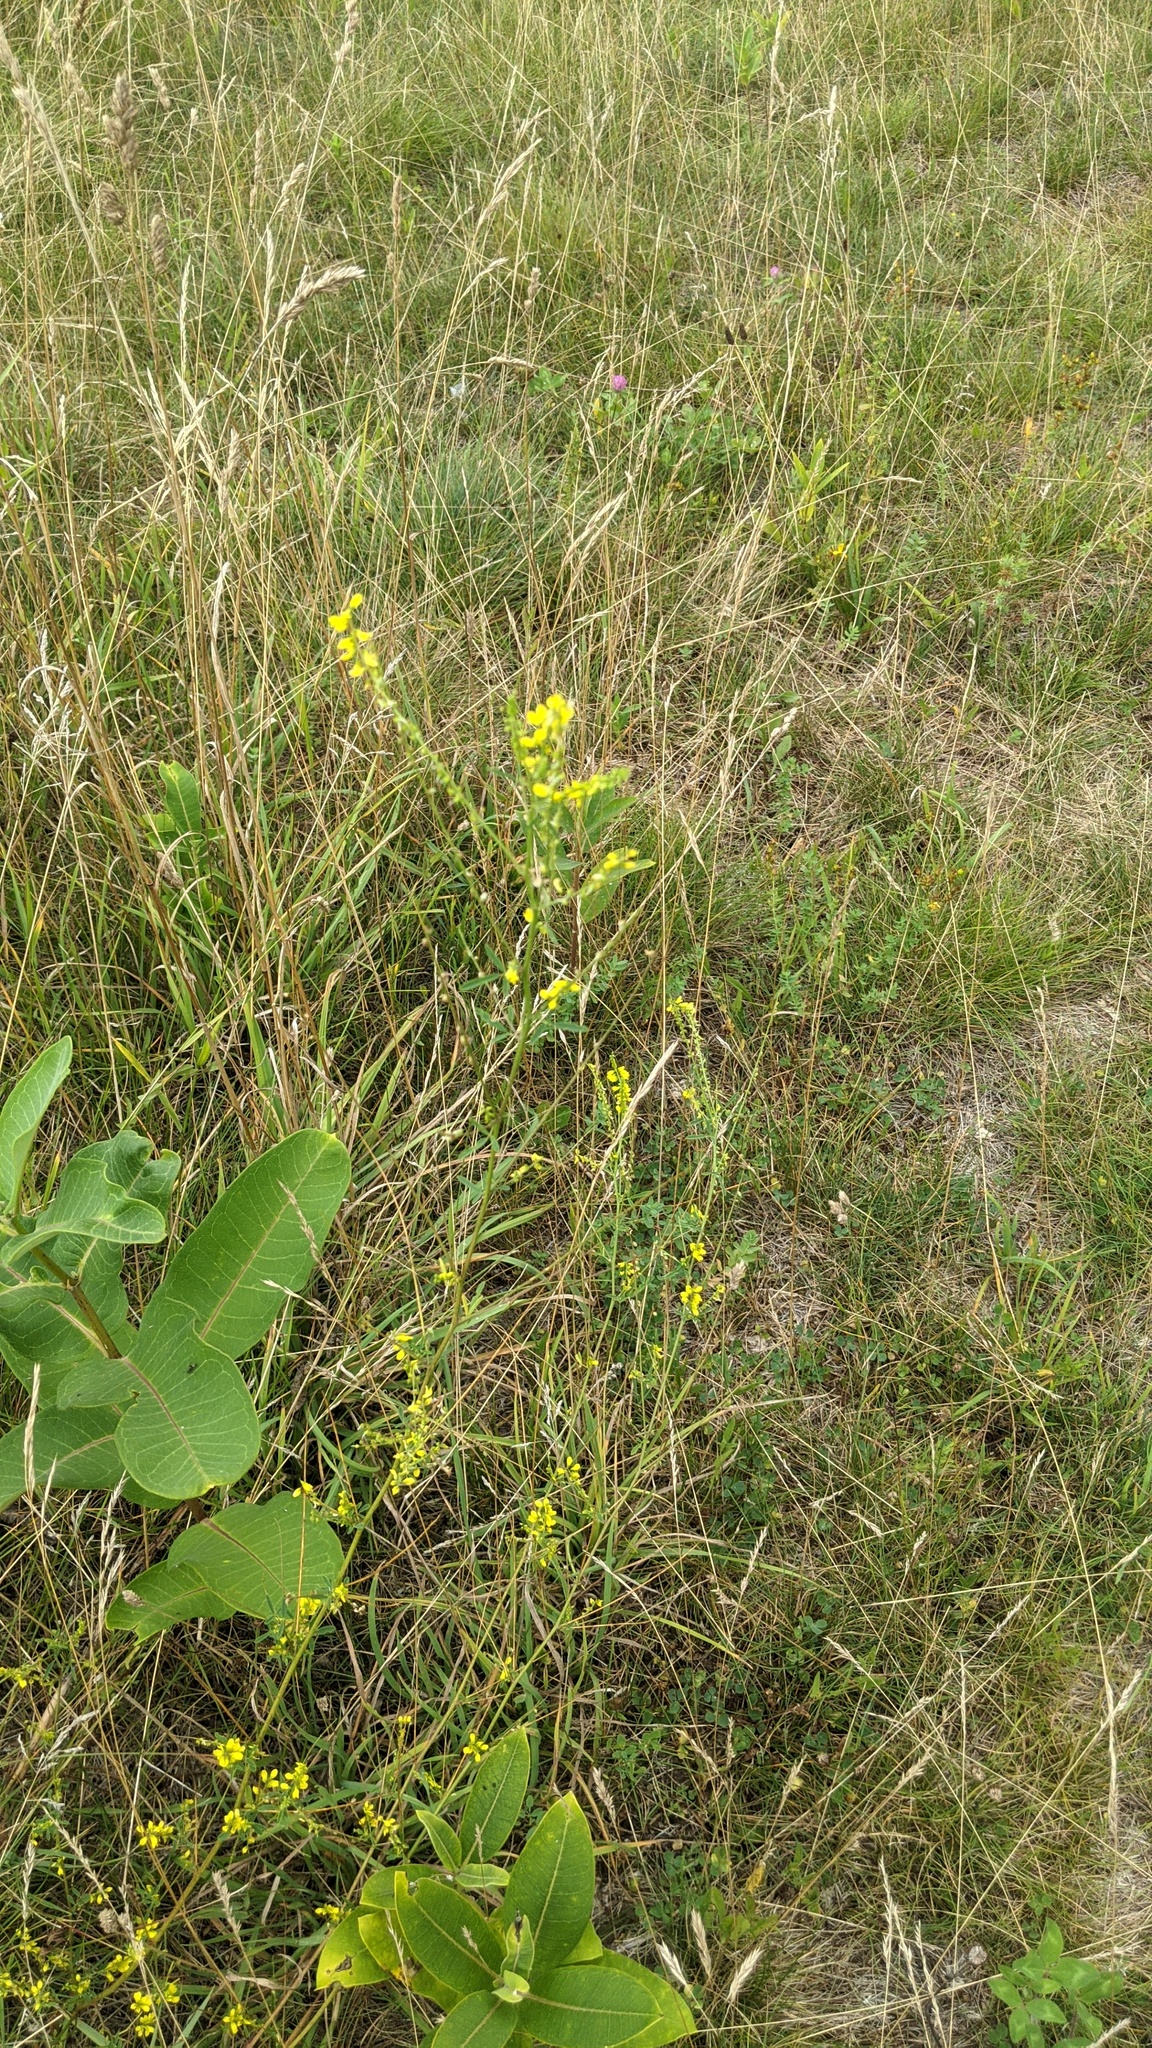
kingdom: Plantae
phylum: Tracheophyta
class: Magnoliopsida
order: Fabales
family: Fabaceae
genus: Melilotus
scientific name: Melilotus officinalis
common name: Sweetclover
